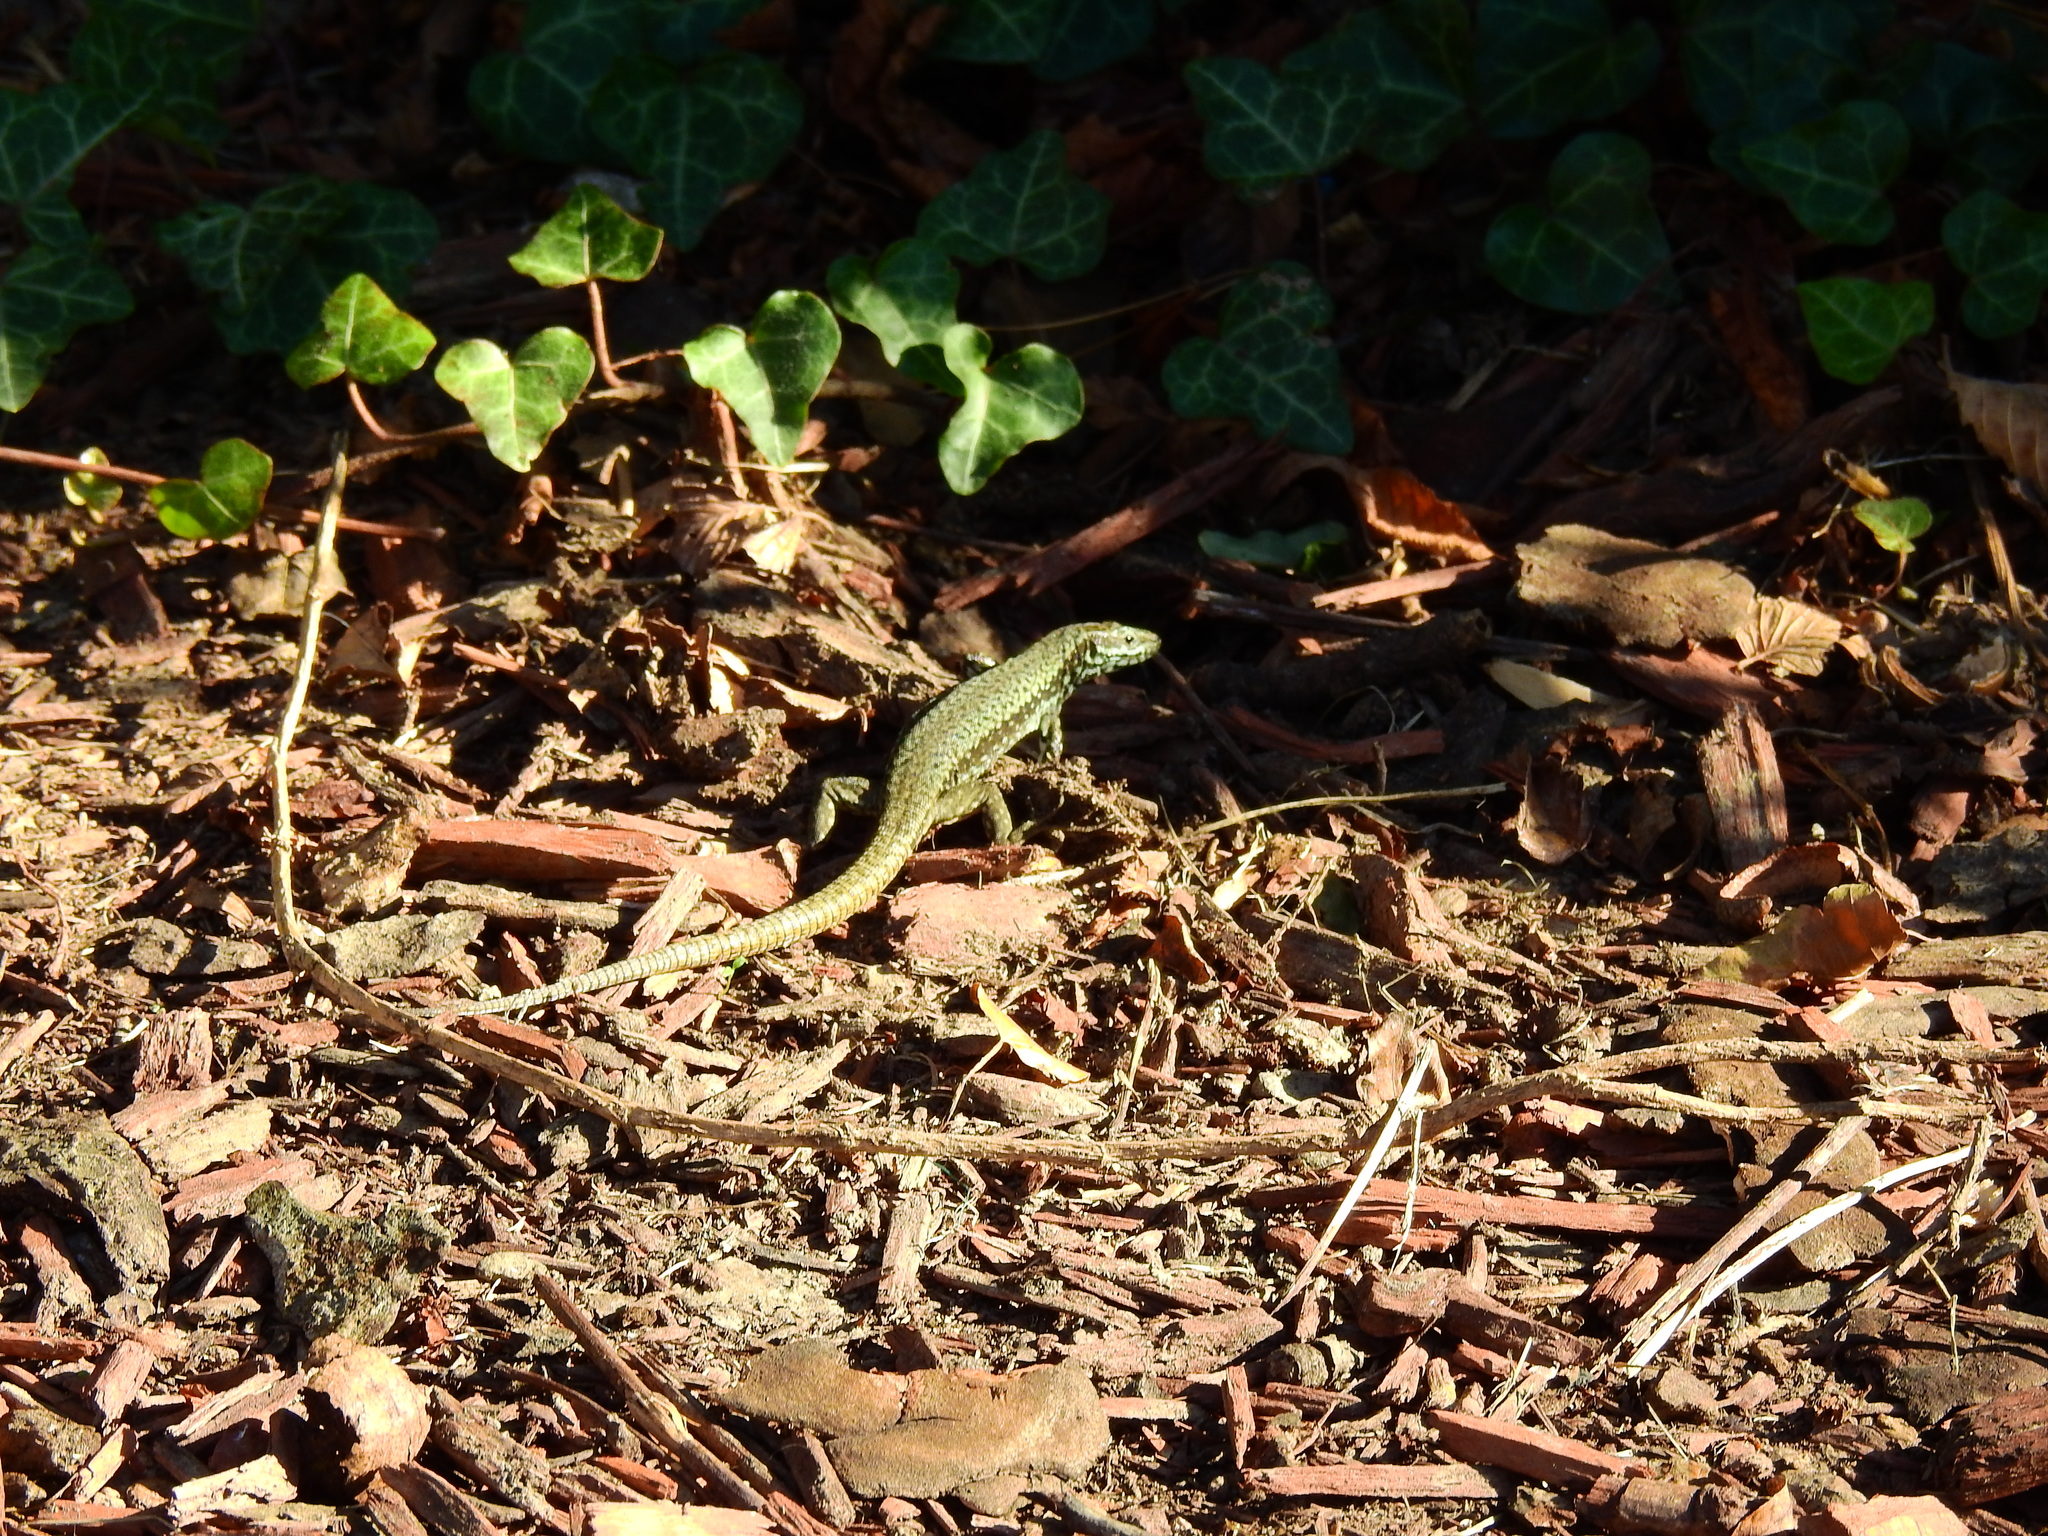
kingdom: Animalia
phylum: Chordata
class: Squamata
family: Lacertidae
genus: Podarcis
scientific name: Podarcis muralis
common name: Common wall lizard
